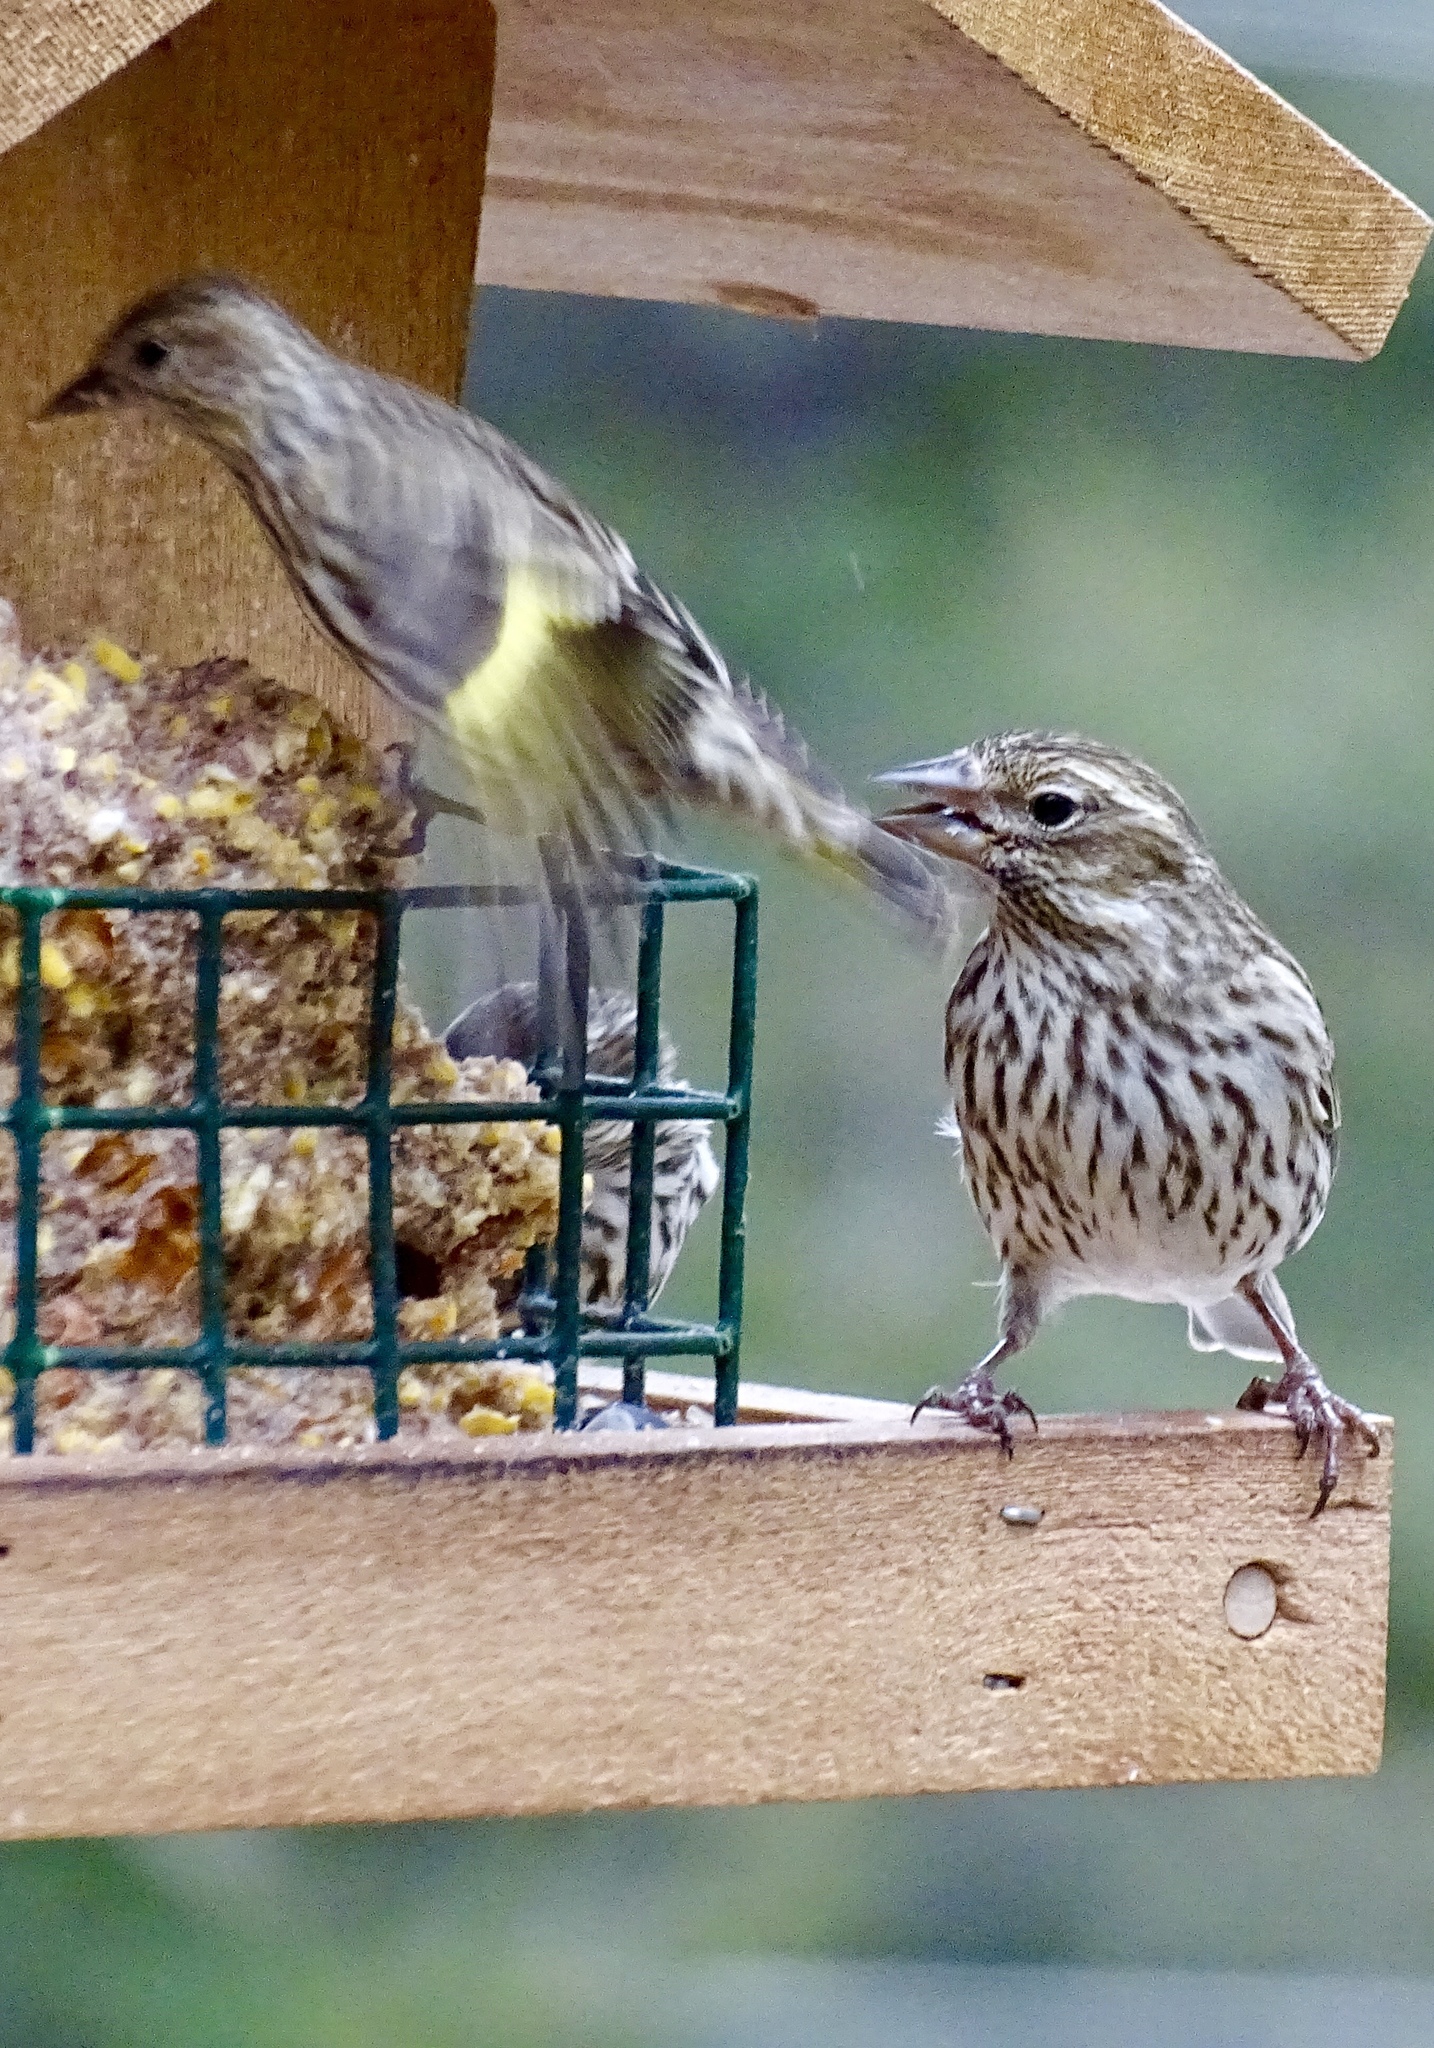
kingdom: Animalia
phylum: Chordata
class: Aves
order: Passeriformes
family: Fringillidae
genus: Spinus
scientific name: Spinus pinus
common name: Pine siskin
